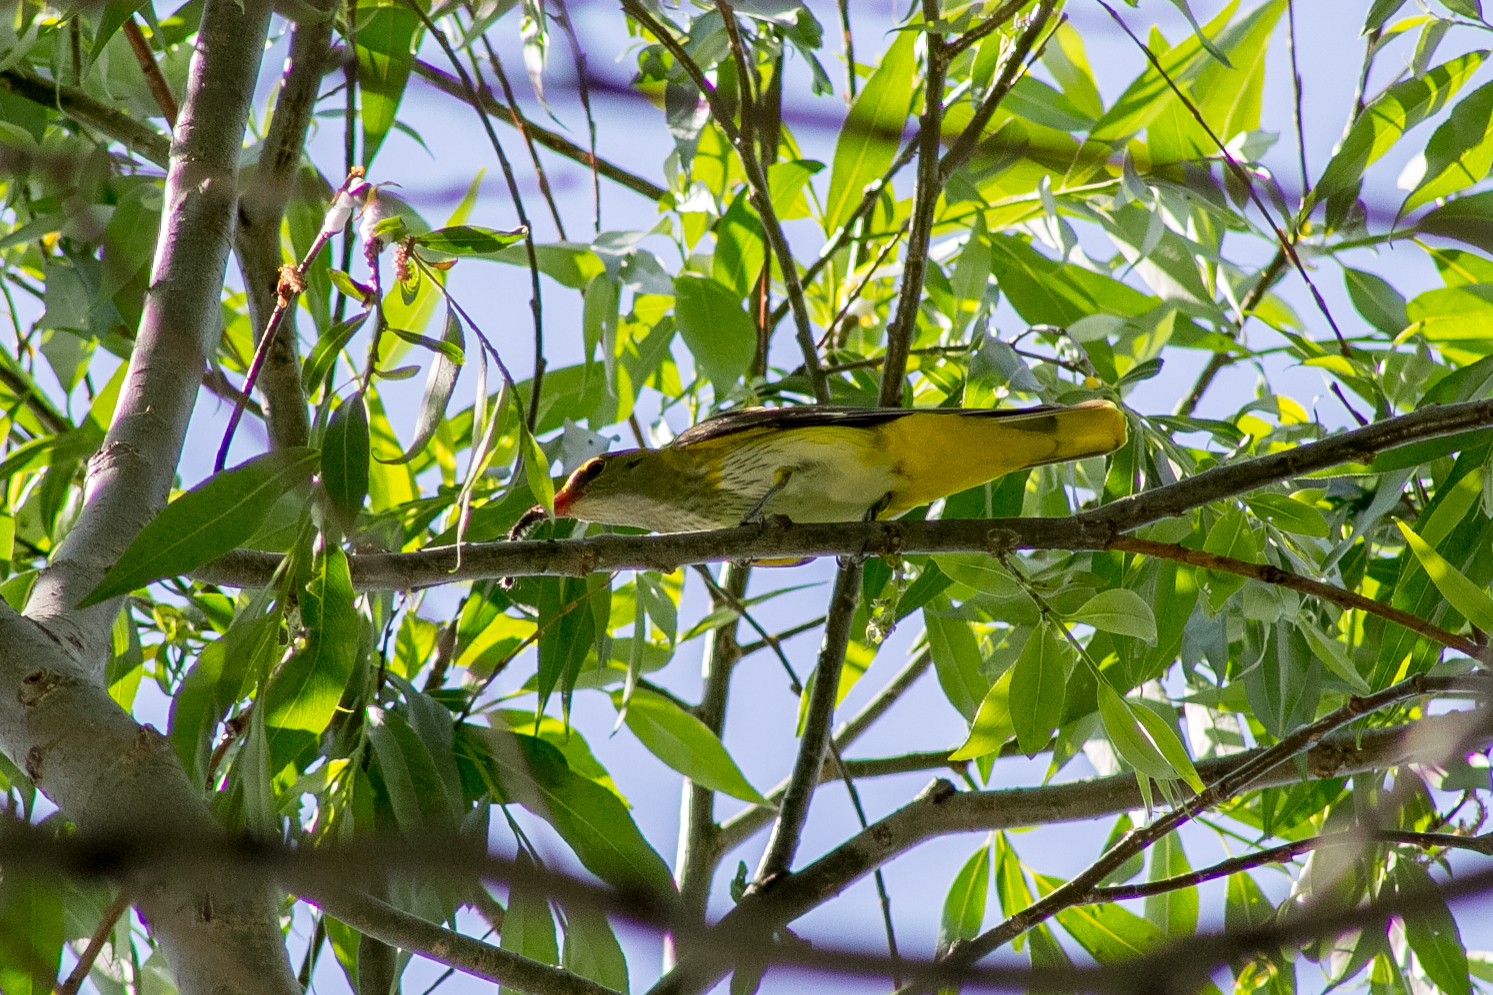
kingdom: Animalia
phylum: Chordata
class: Aves
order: Passeriformes
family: Oriolidae
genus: Oriolus
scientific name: Oriolus oriolus
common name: Eurasian golden oriole
